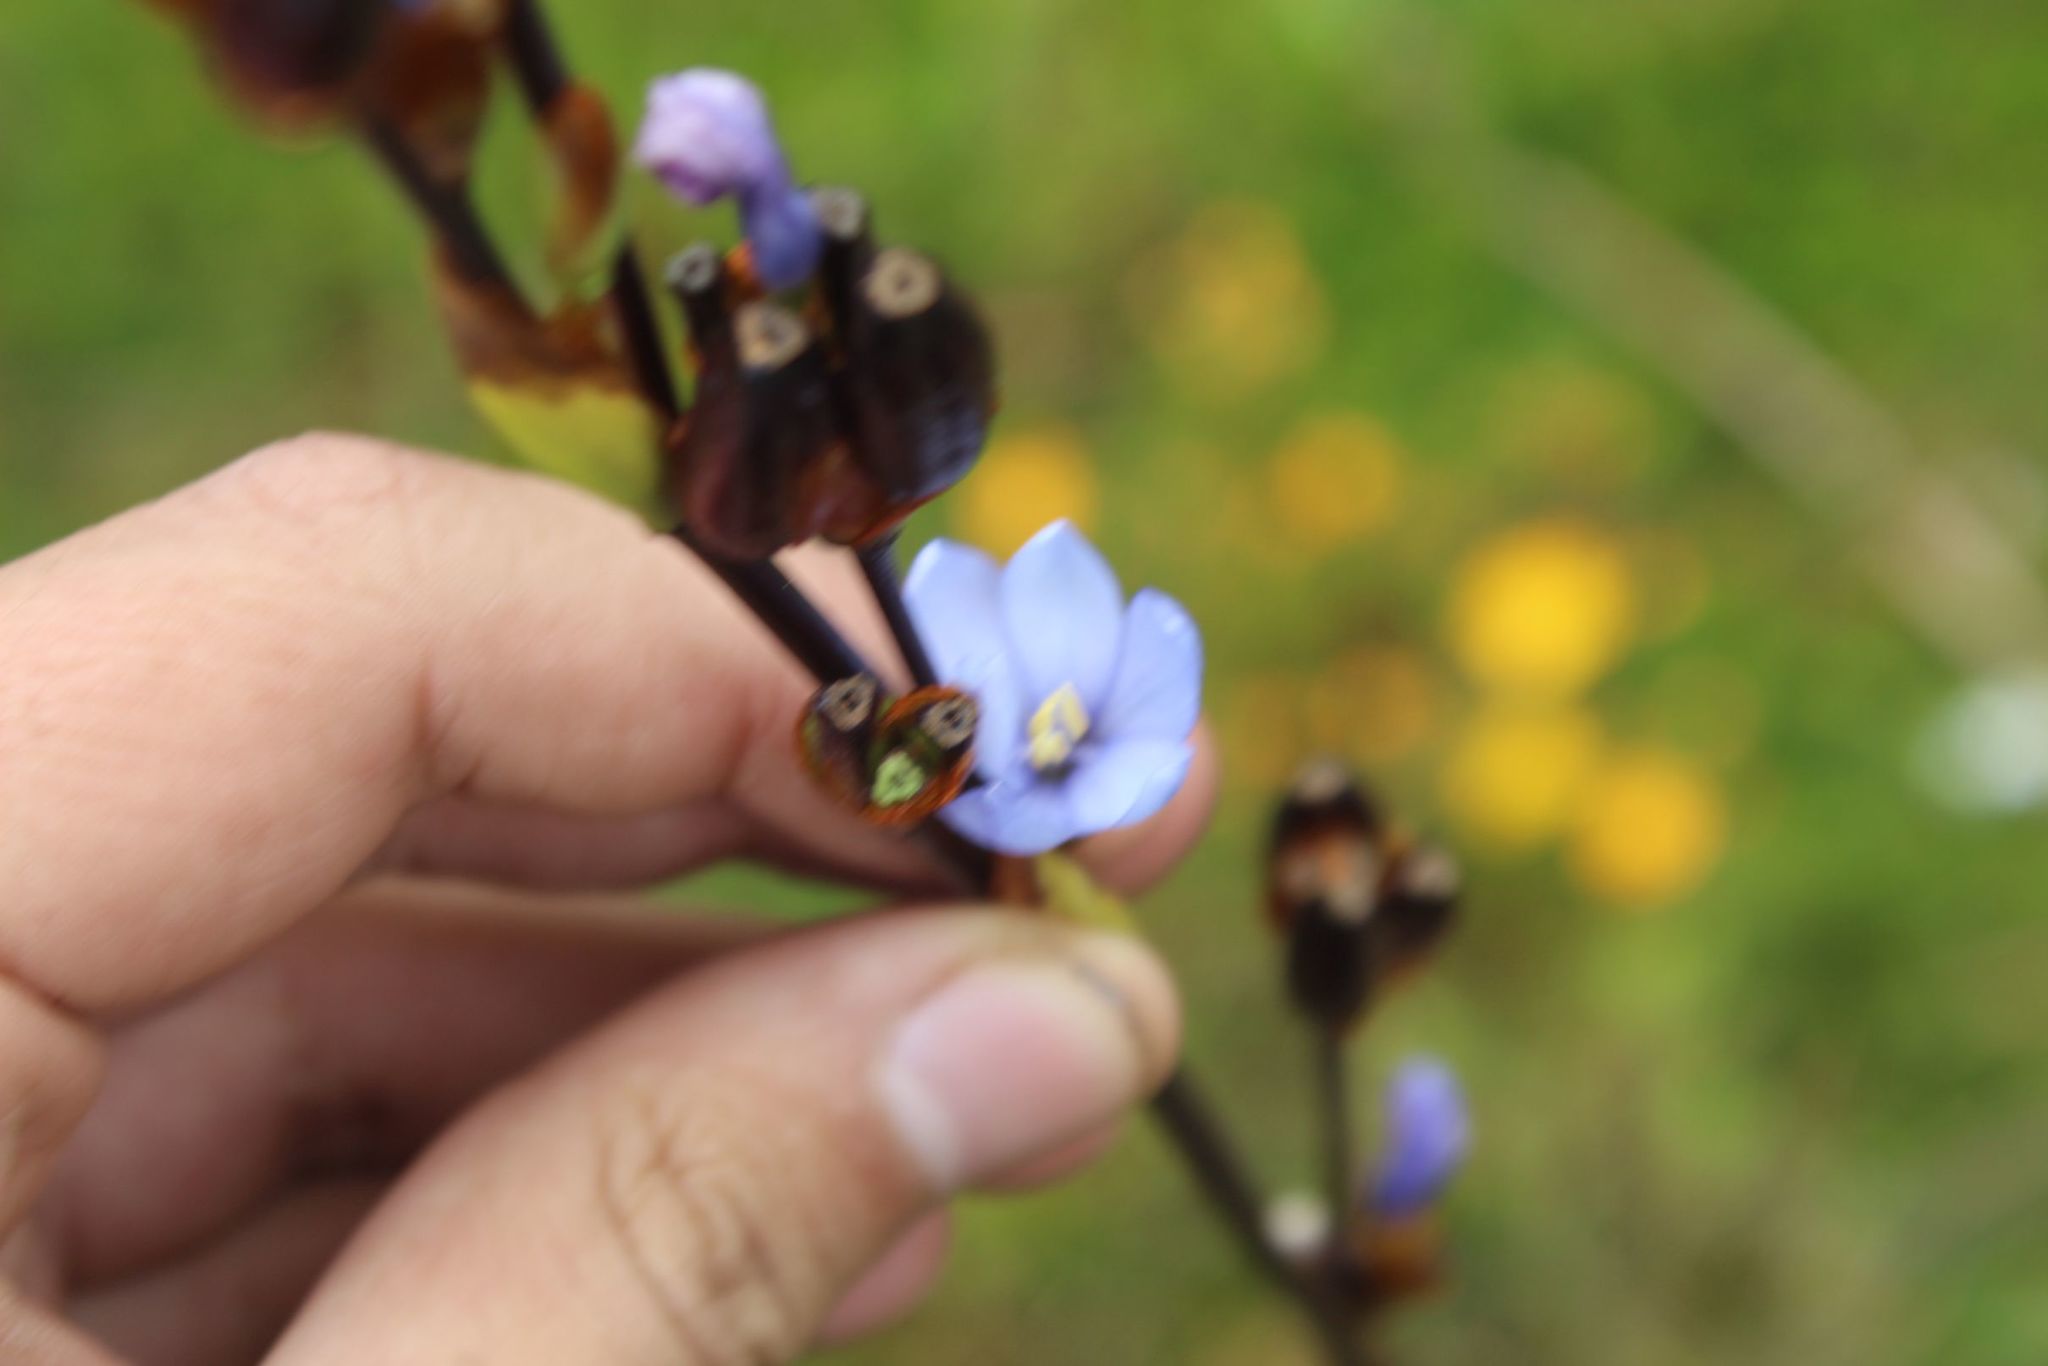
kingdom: Plantae
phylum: Tracheophyta
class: Liliopsida
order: Asparagales
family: Iridaceae
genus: Orthrosanthus
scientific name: Orthrosanthus chimboracensis
